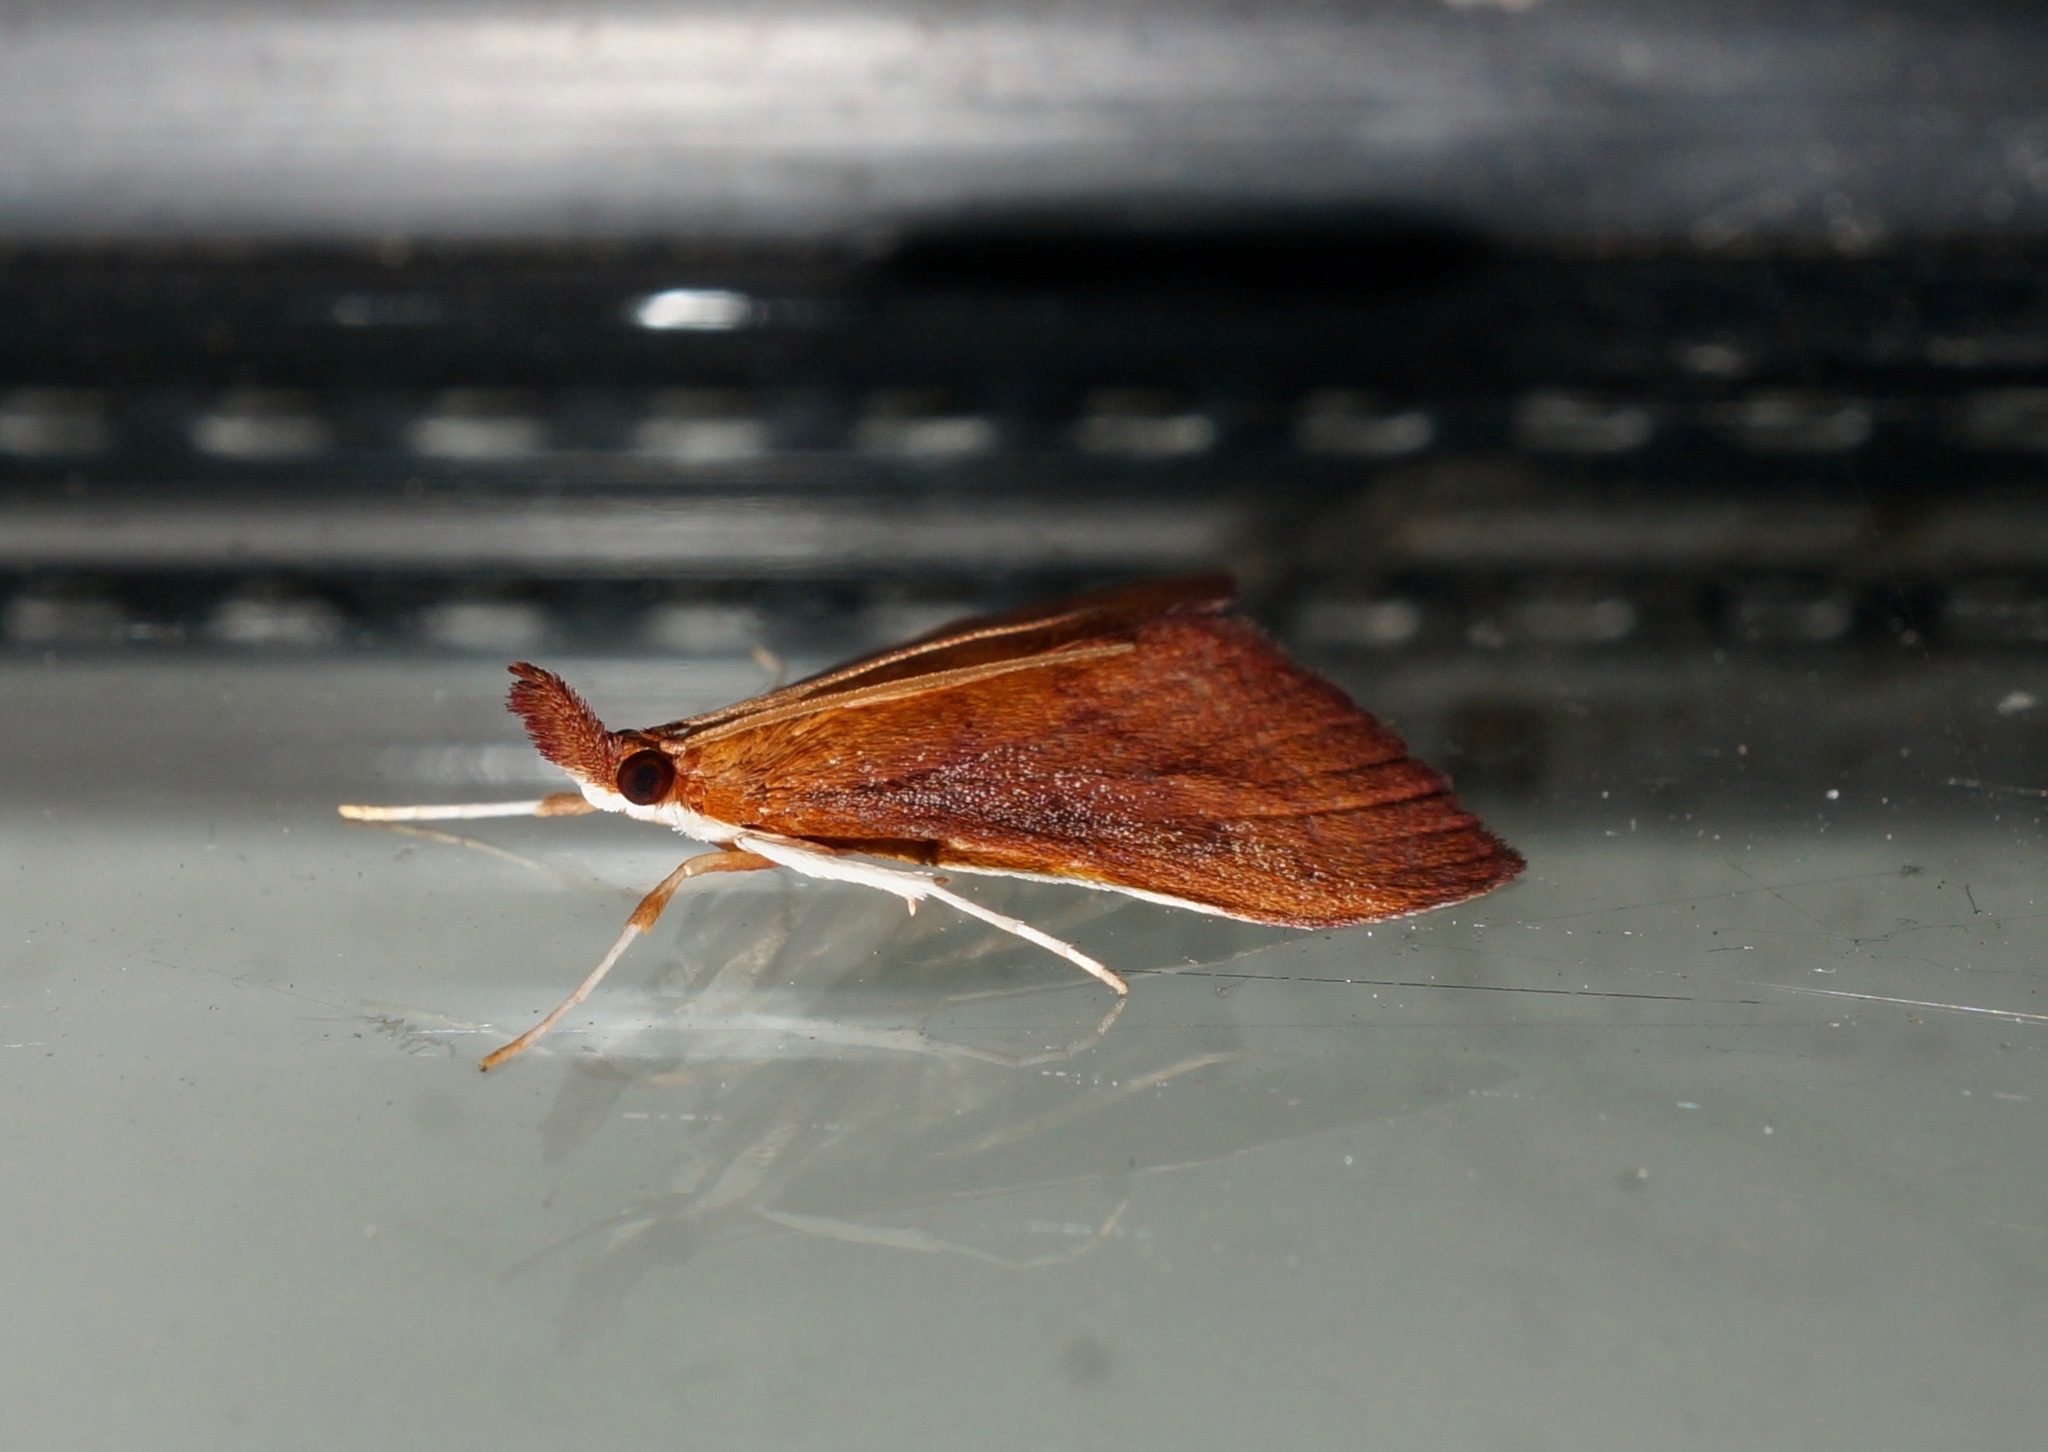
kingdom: Animalia
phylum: Arthropoda
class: Insecta
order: Lepidoptera
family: Crambidae
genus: Udea
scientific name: Udea daiclesalis
